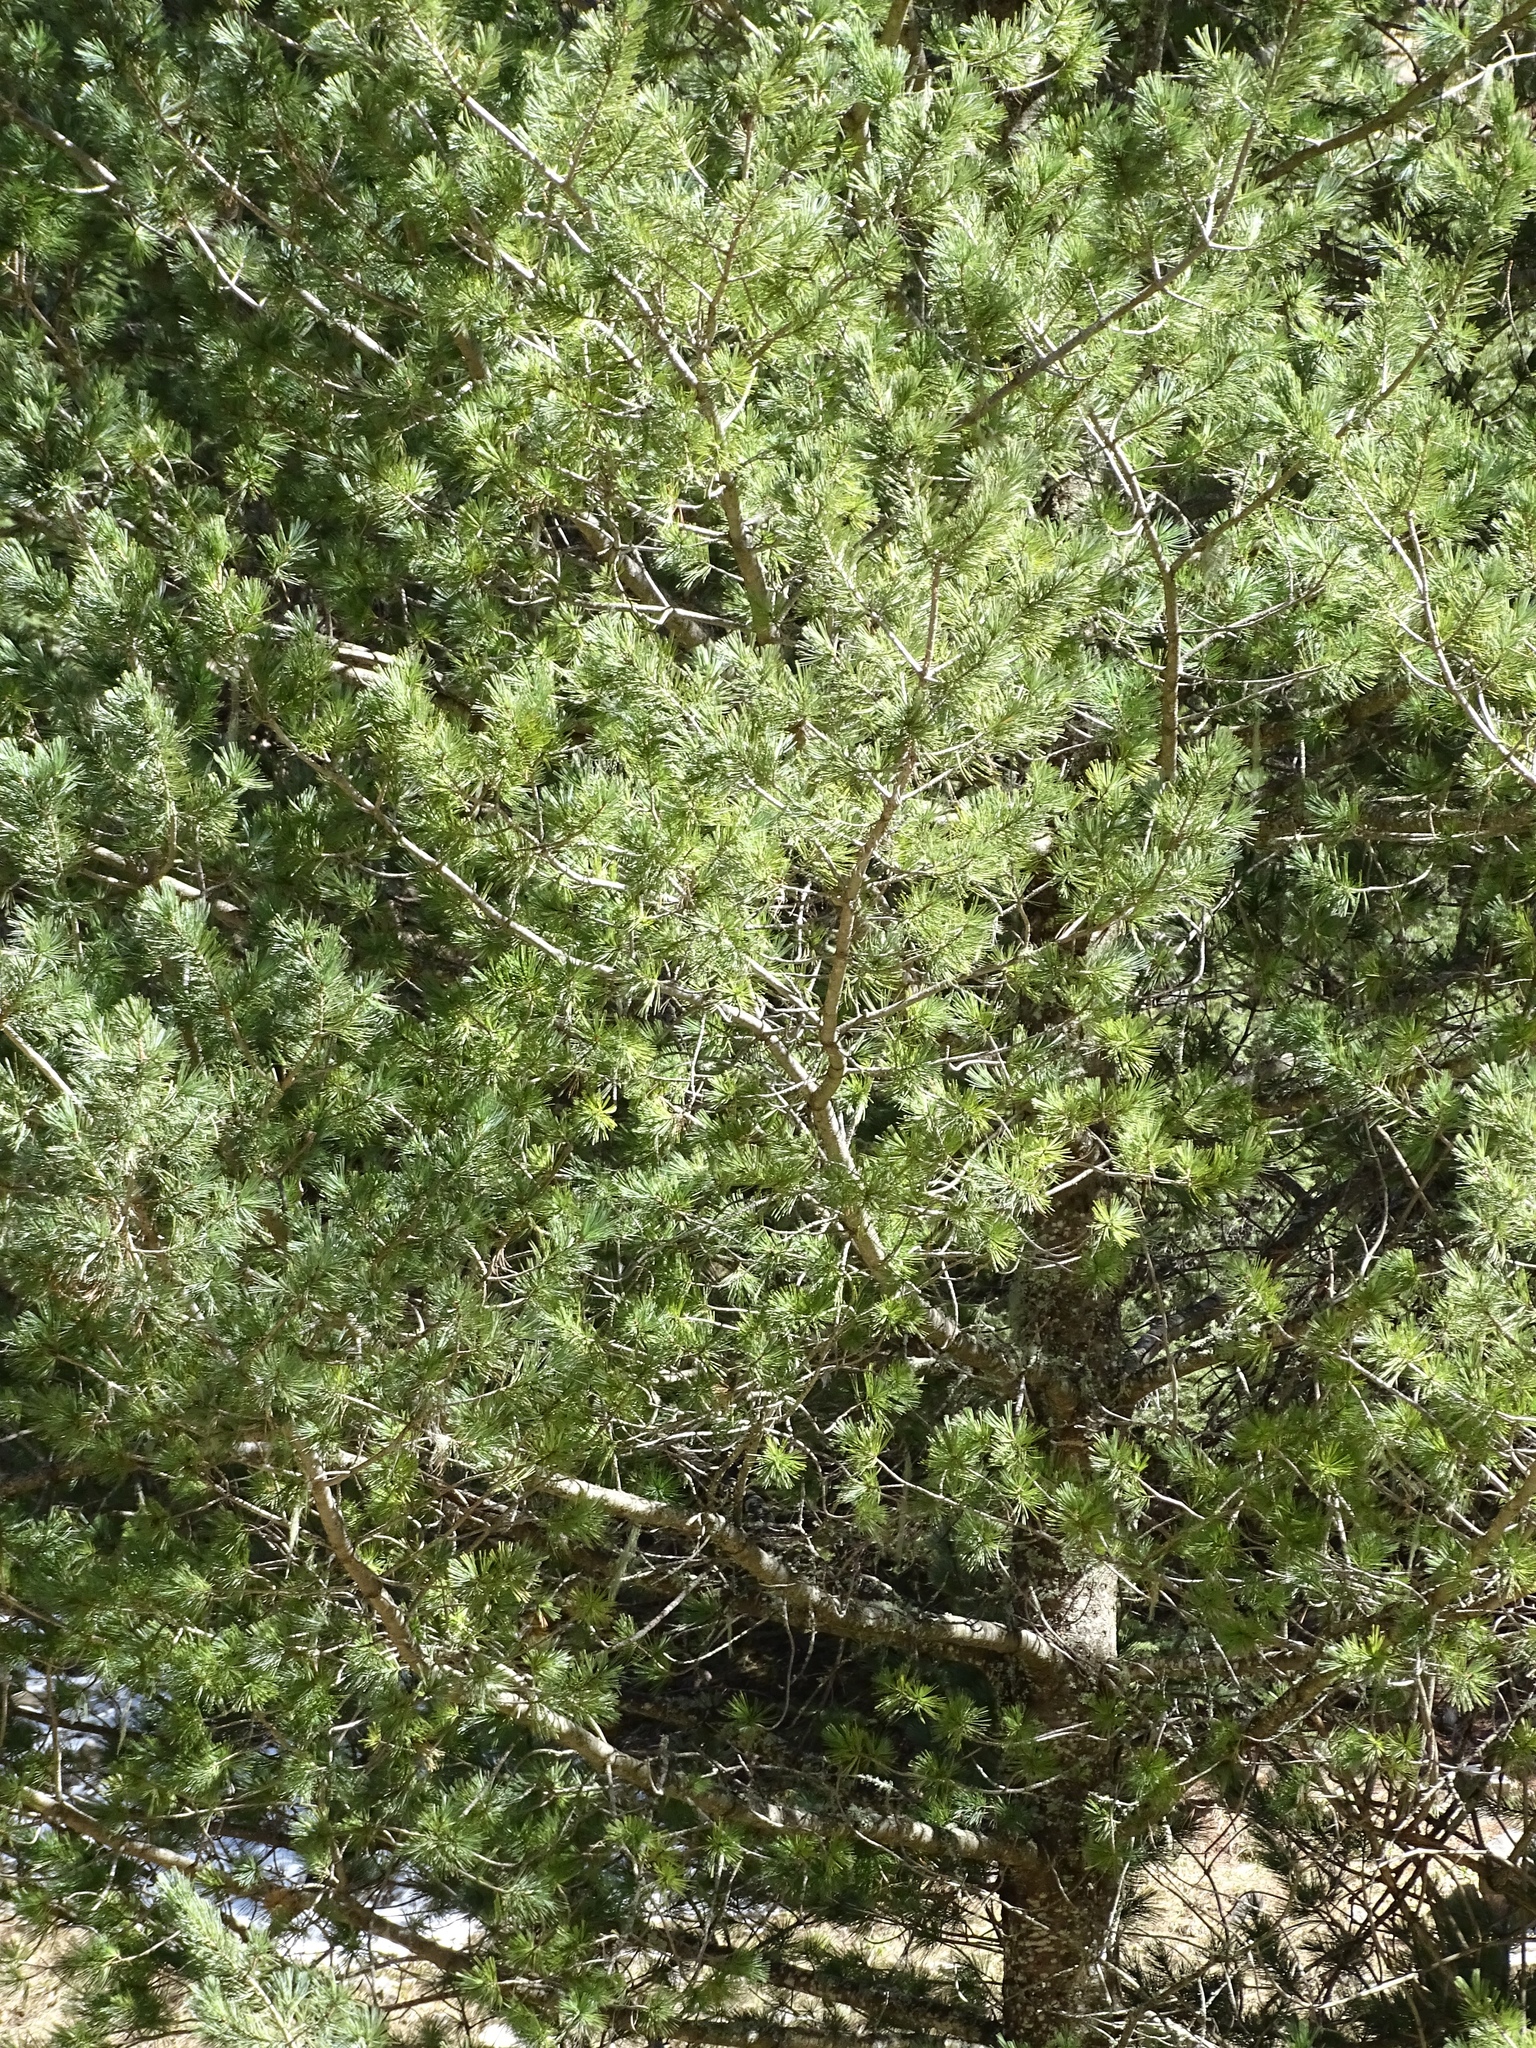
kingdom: Plantae
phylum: Tracheophyta
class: Pinopsida
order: Pinales
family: Pinaceae
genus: Pinus
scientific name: Pinus strobiformis
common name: Southwestern white pine
